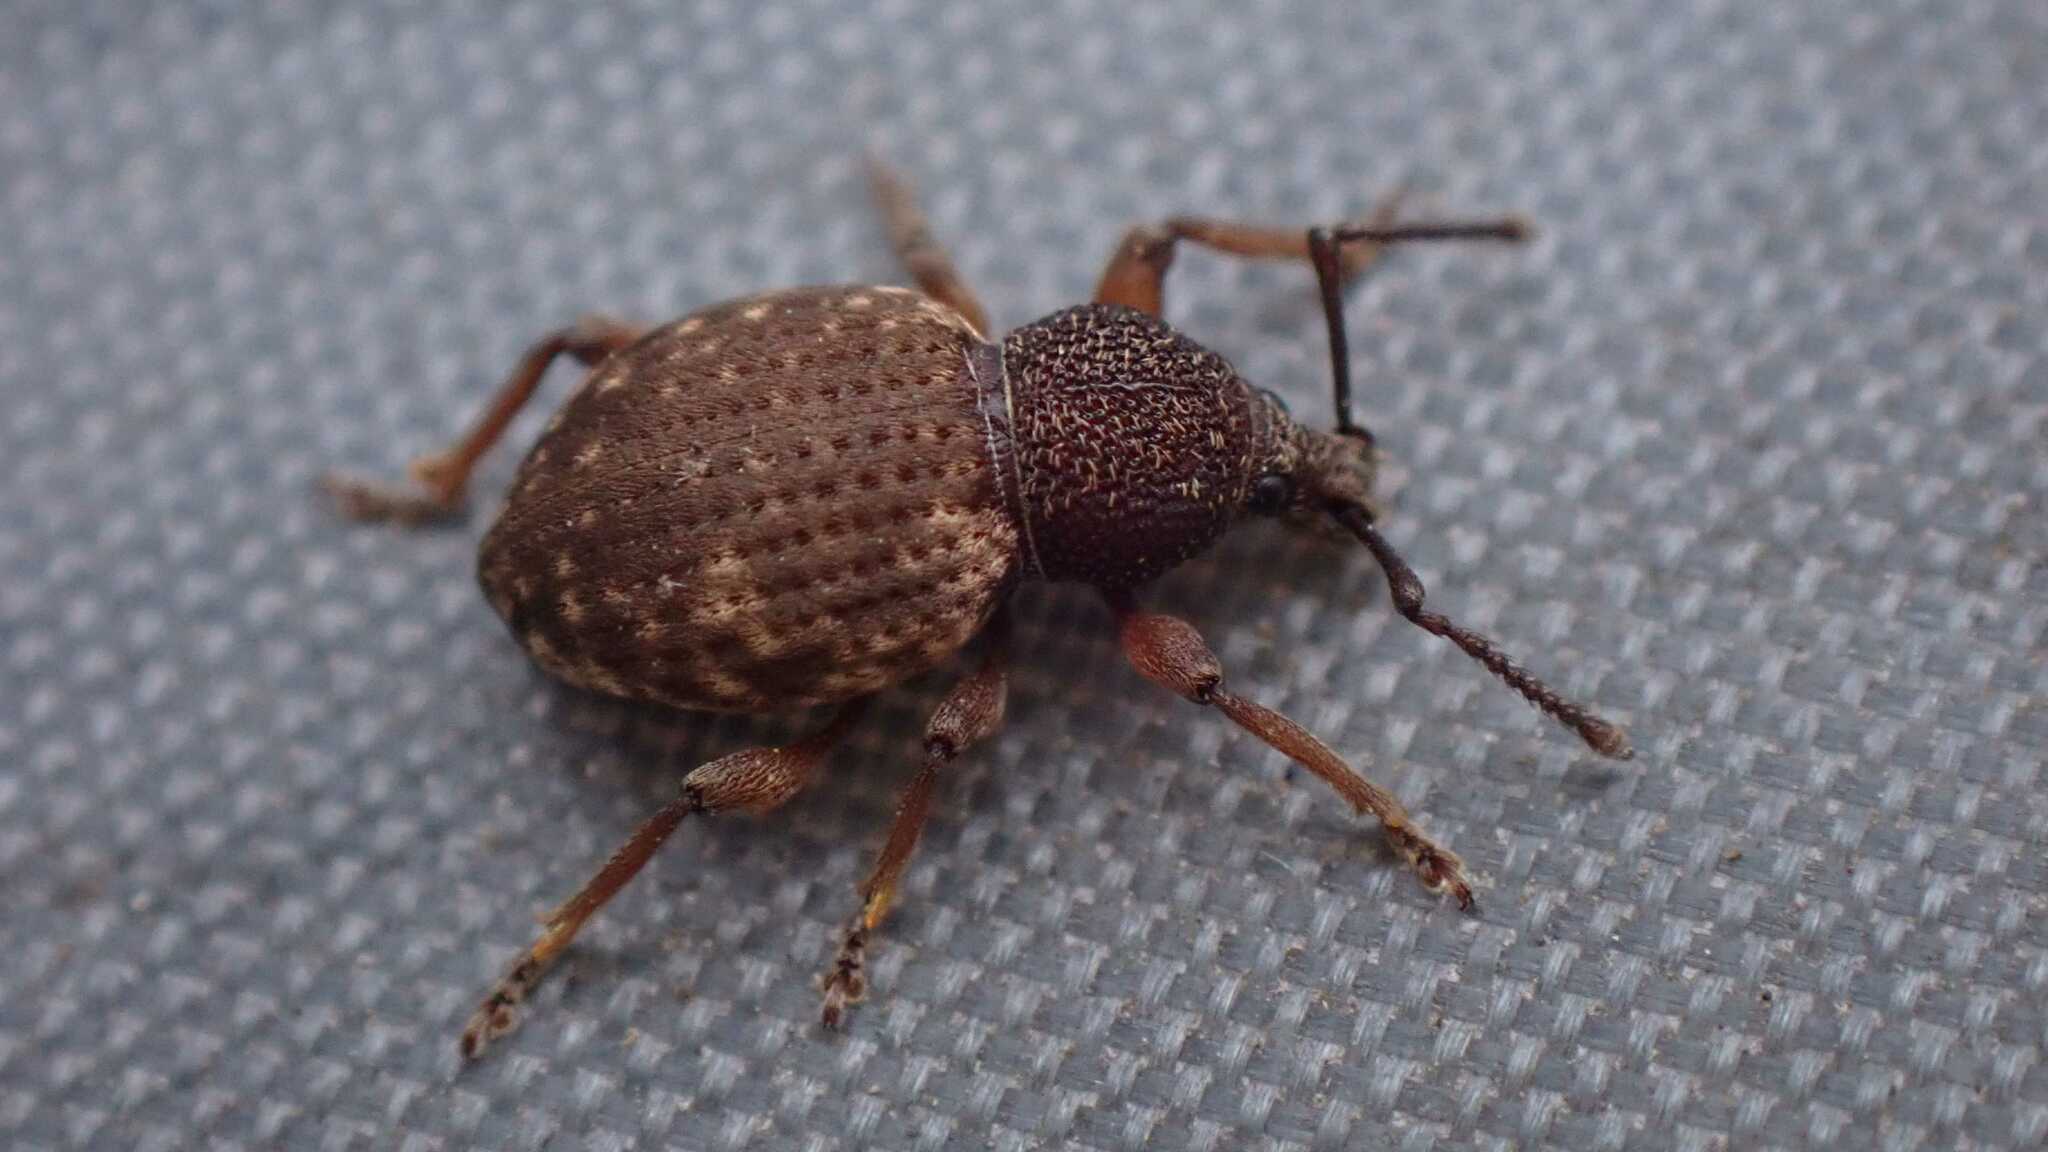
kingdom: Animalia
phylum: Arthropoda
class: Insecta
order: Coleoptera
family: Curculionidae
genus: Otiorhynchus
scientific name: Otiorhynchus raucus
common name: Weevil
